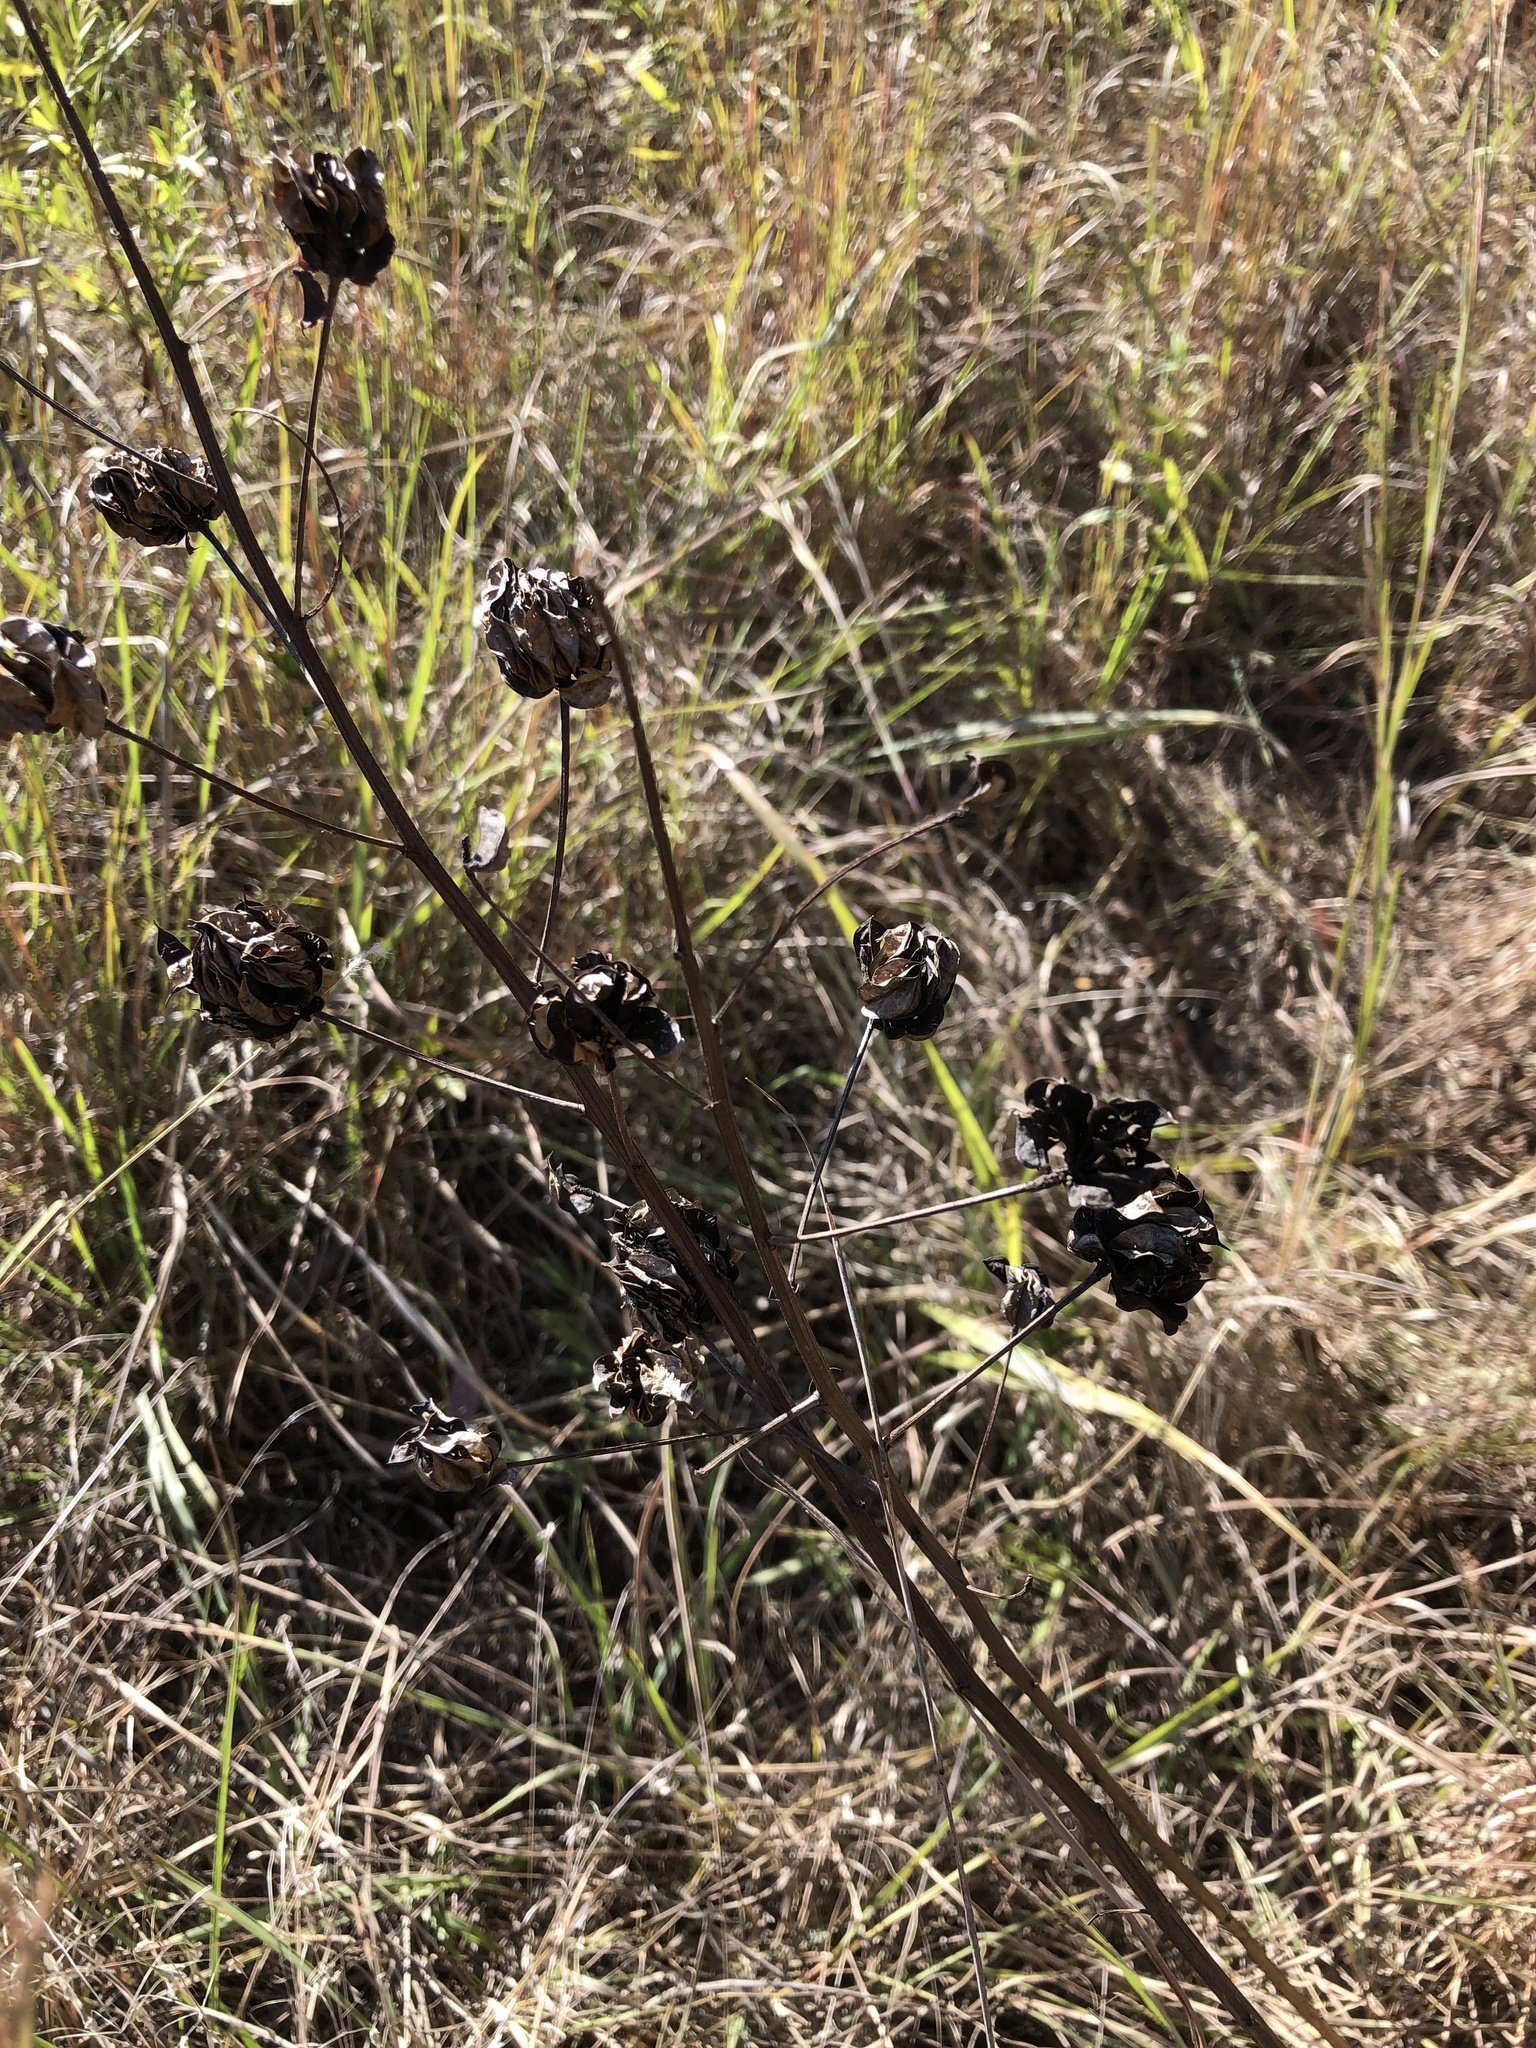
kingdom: Plantae
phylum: Tracheophyta
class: Magnoliopsida
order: Fabales
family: Fabaceae
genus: Desmanthus
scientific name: Desmanthus illinoensis
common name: Illinois bundle-flower
